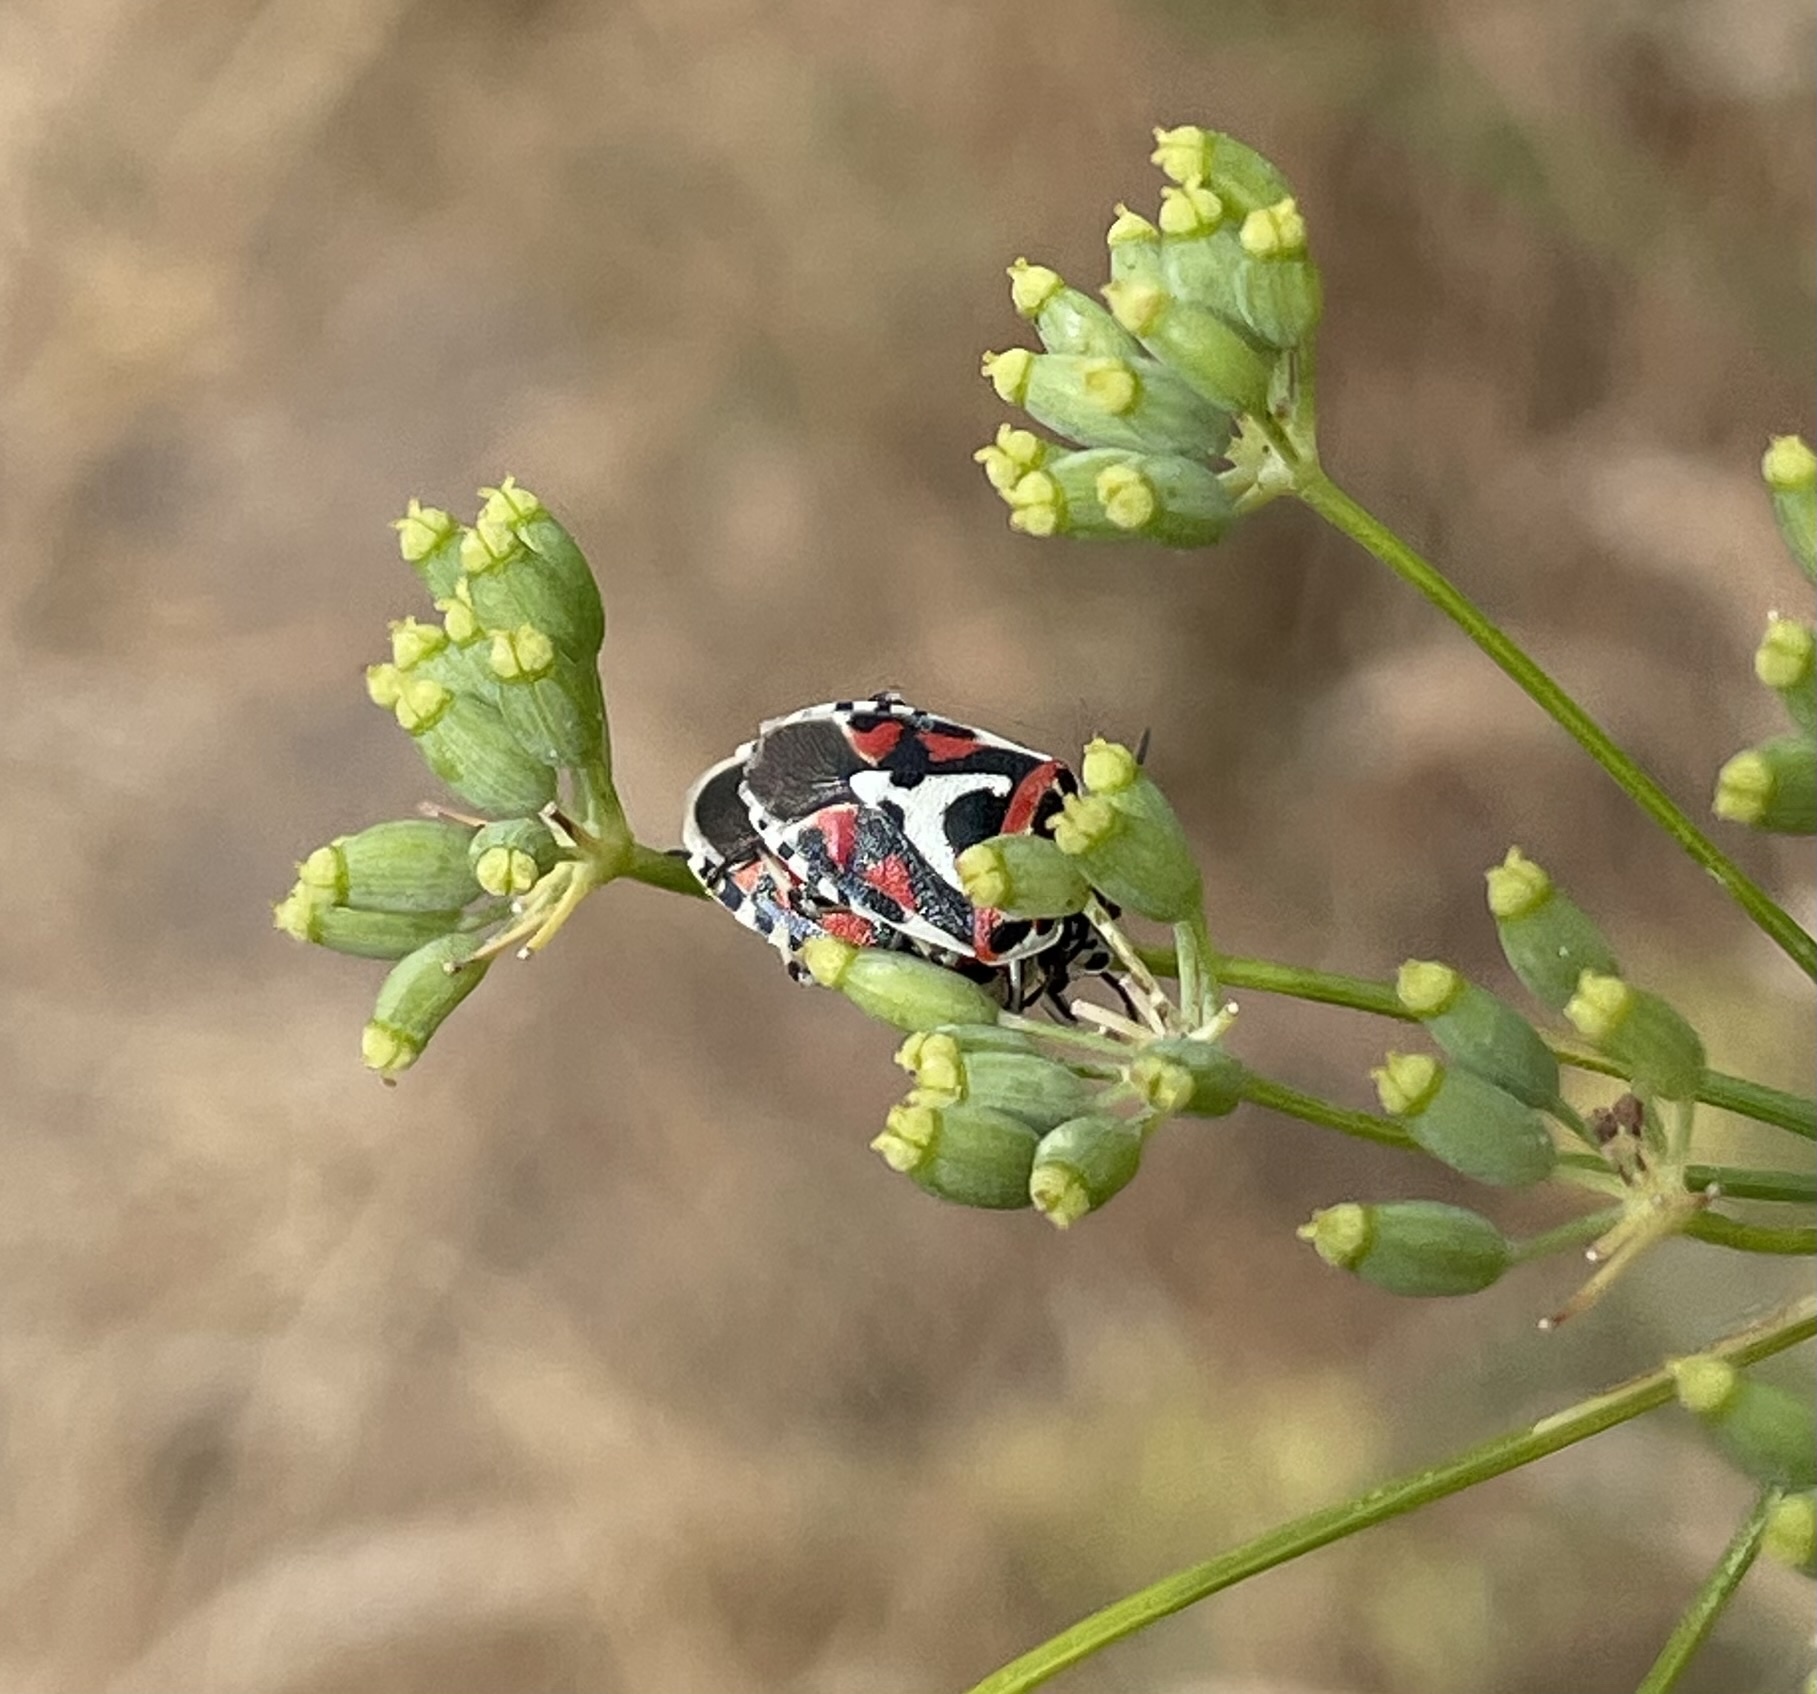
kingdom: Animalia
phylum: Arthropoda
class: Insecta
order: Hemiptera
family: Pentatomidae
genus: Eurydema
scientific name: Eurydema ornata
